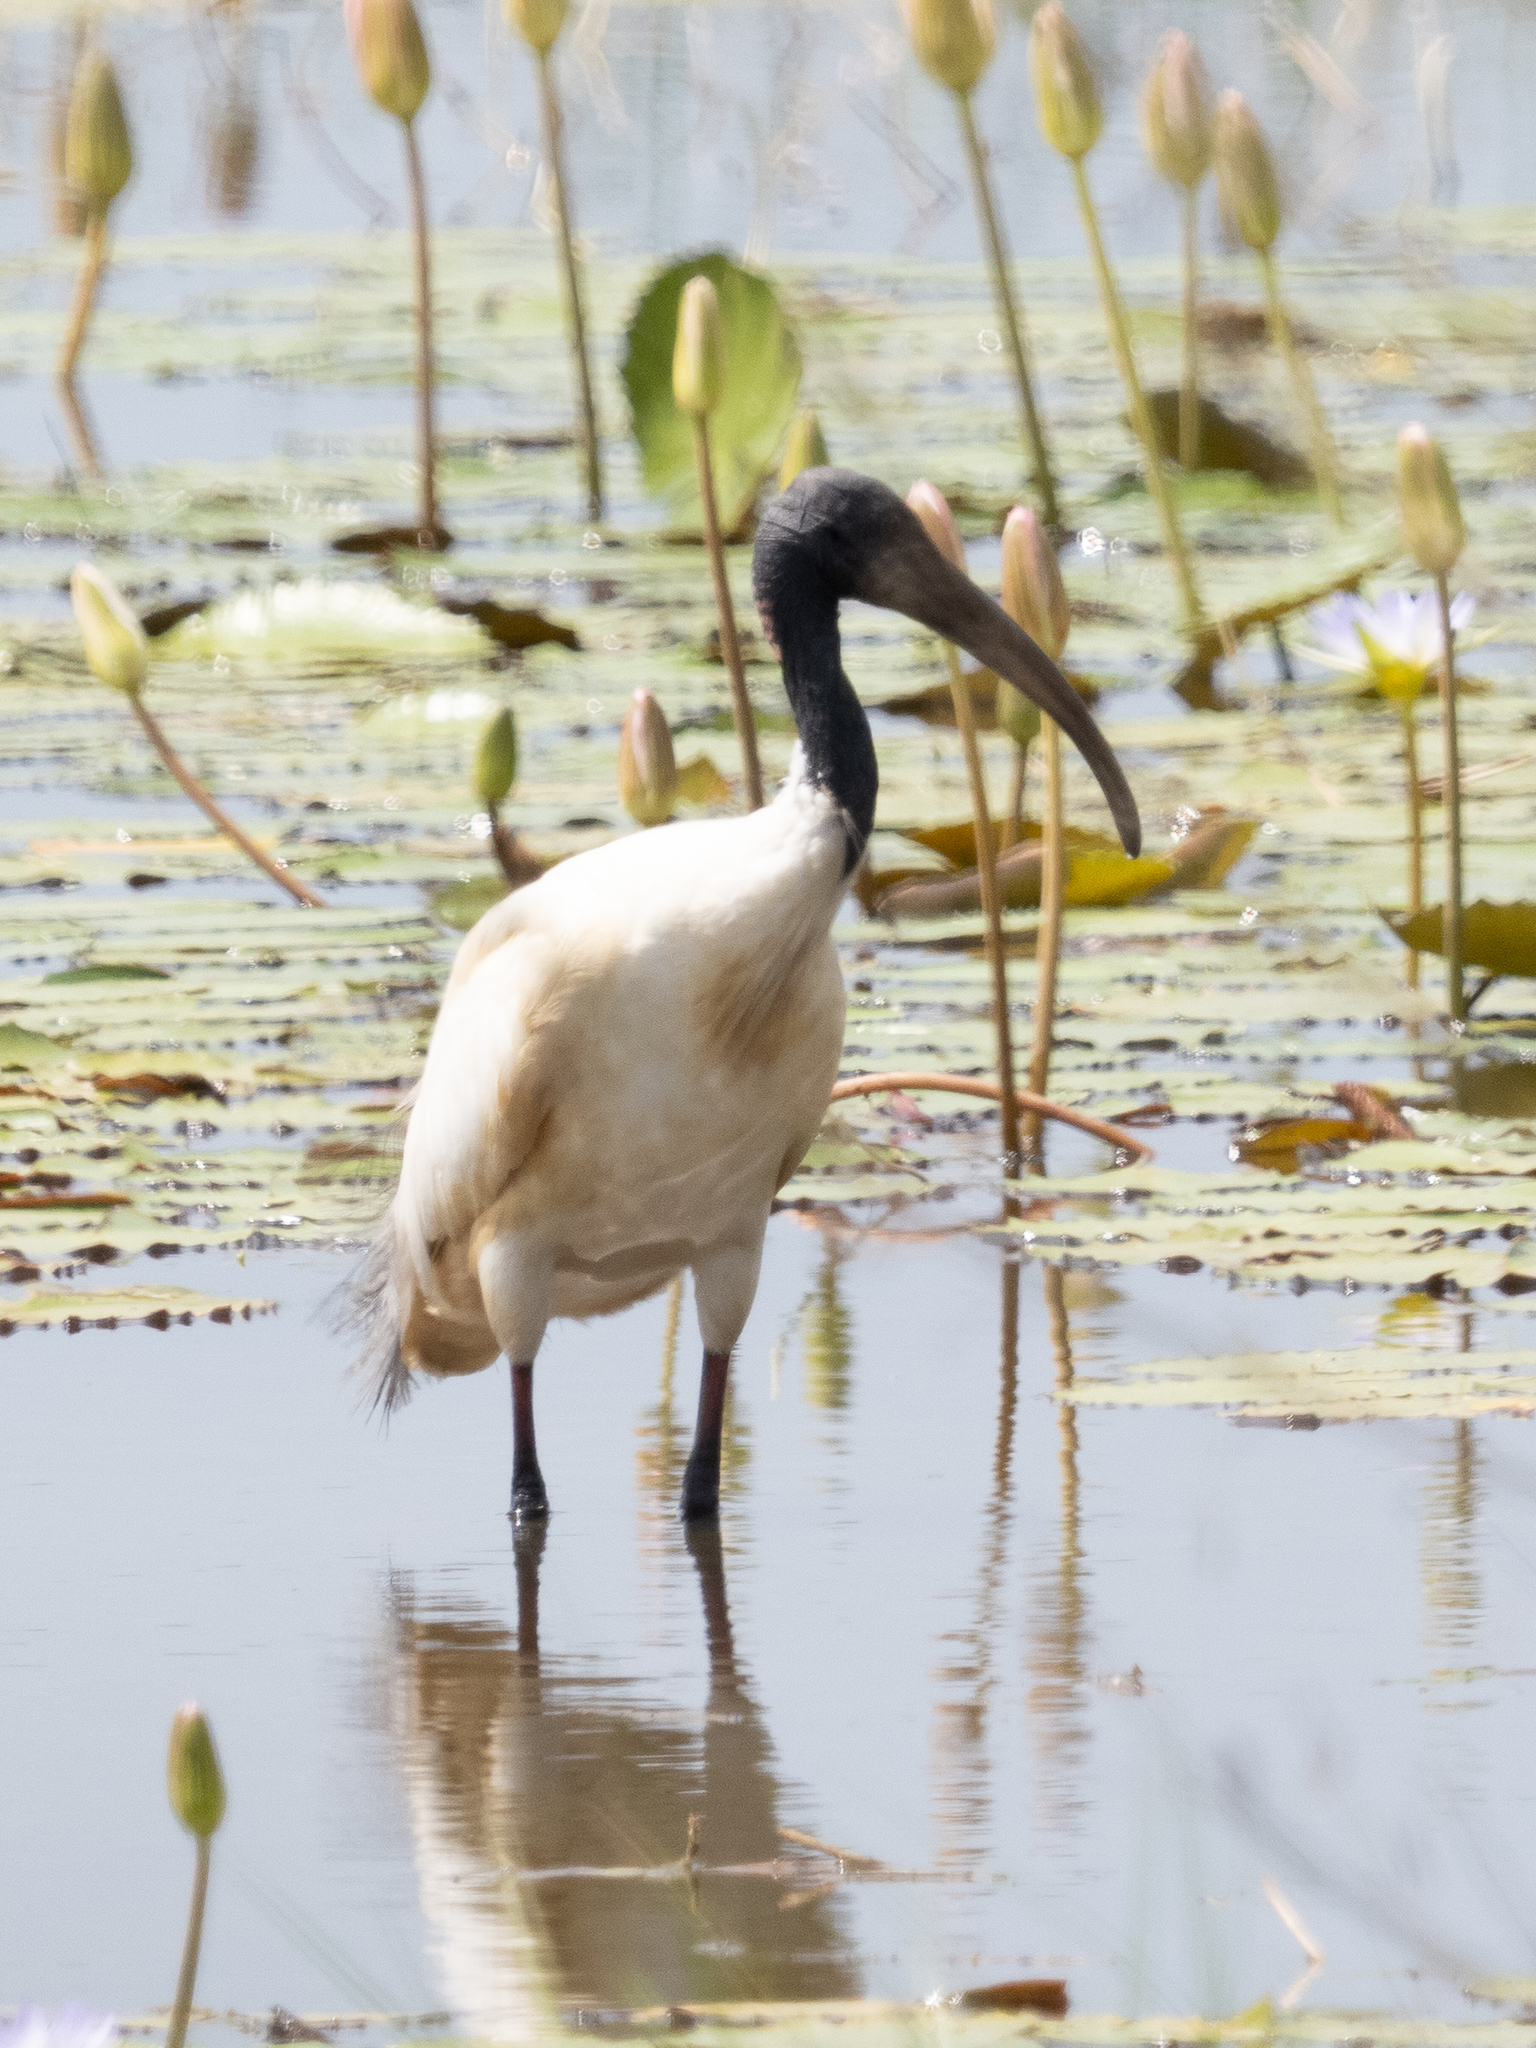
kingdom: Animalia
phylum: Chordata
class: Aves
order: Pelecaniformes
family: Threskiornithidae
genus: Threskiornis
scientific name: Threskiornis melanocephalus
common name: Black-headed ibis
